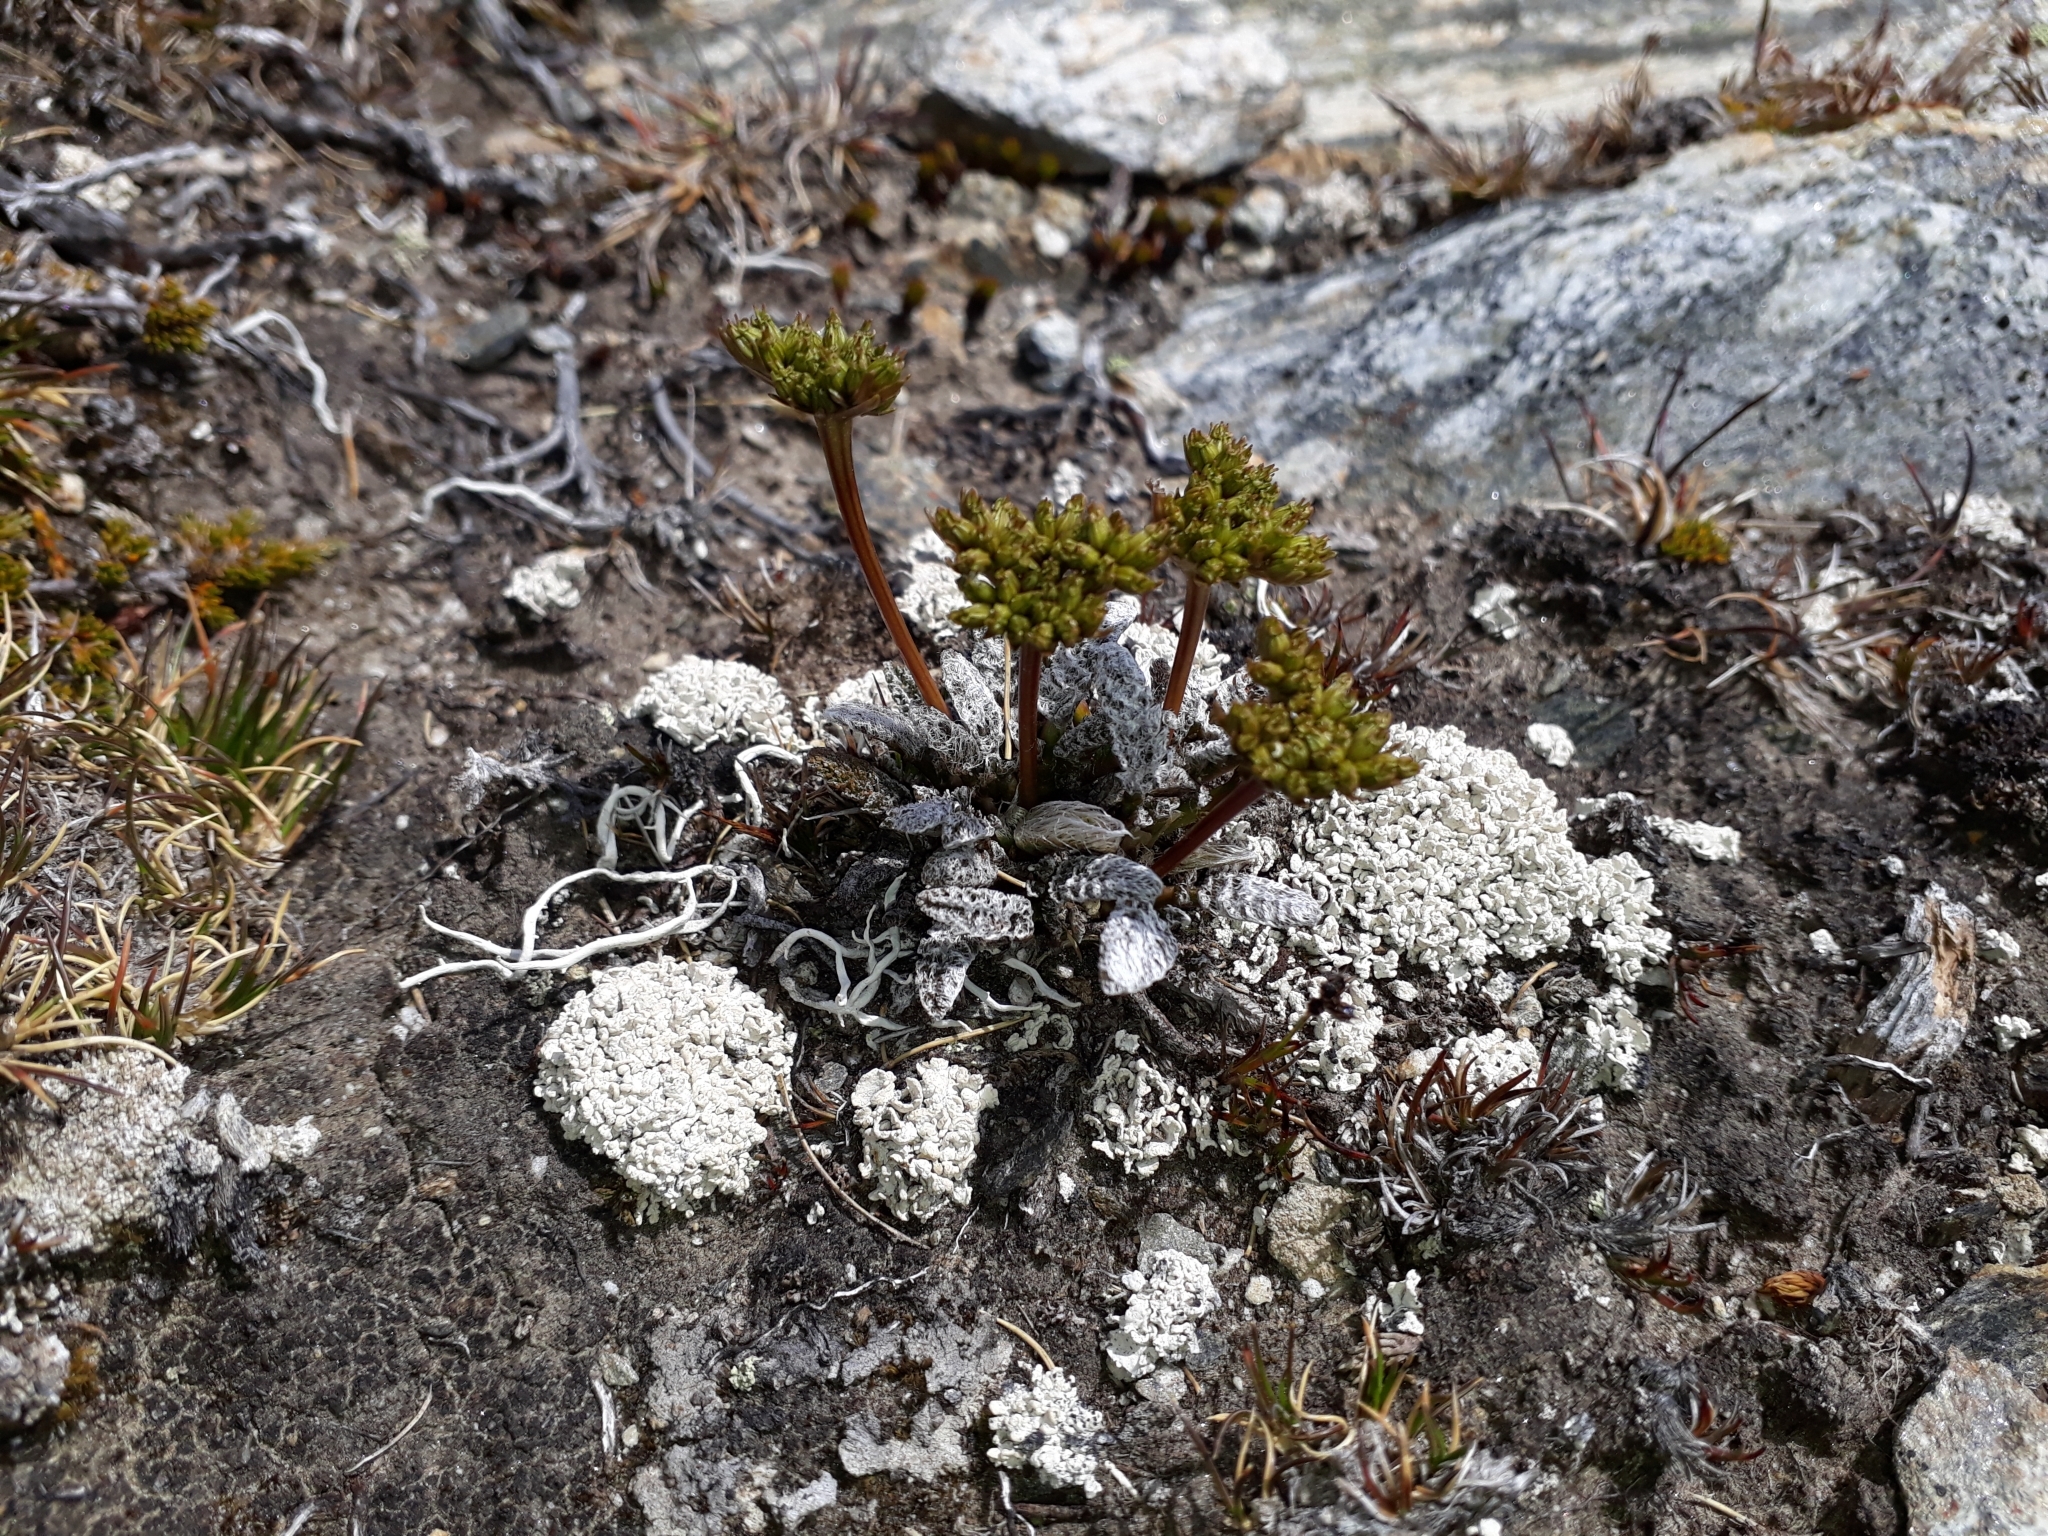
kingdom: Plantae
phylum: Tracheophyta
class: Magnoliopsida
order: Apiales
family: Apiaceae
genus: Anisotome
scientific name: Anisotome lanuginosa
